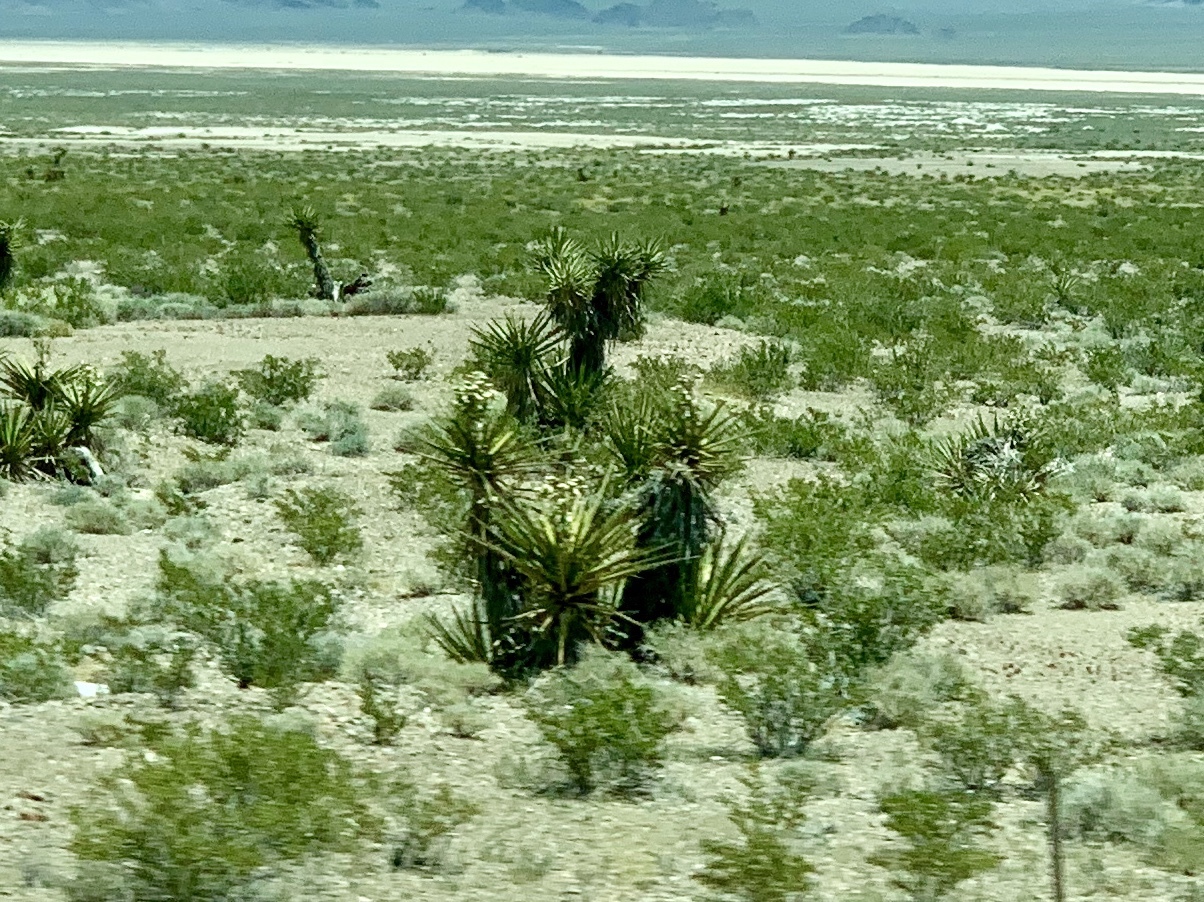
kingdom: Plantae
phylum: Tracheophyta
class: Liliopsida
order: Asparagales
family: Asparagaceae
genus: Yucca
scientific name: Yucca schidigera
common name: Mojave yucca
